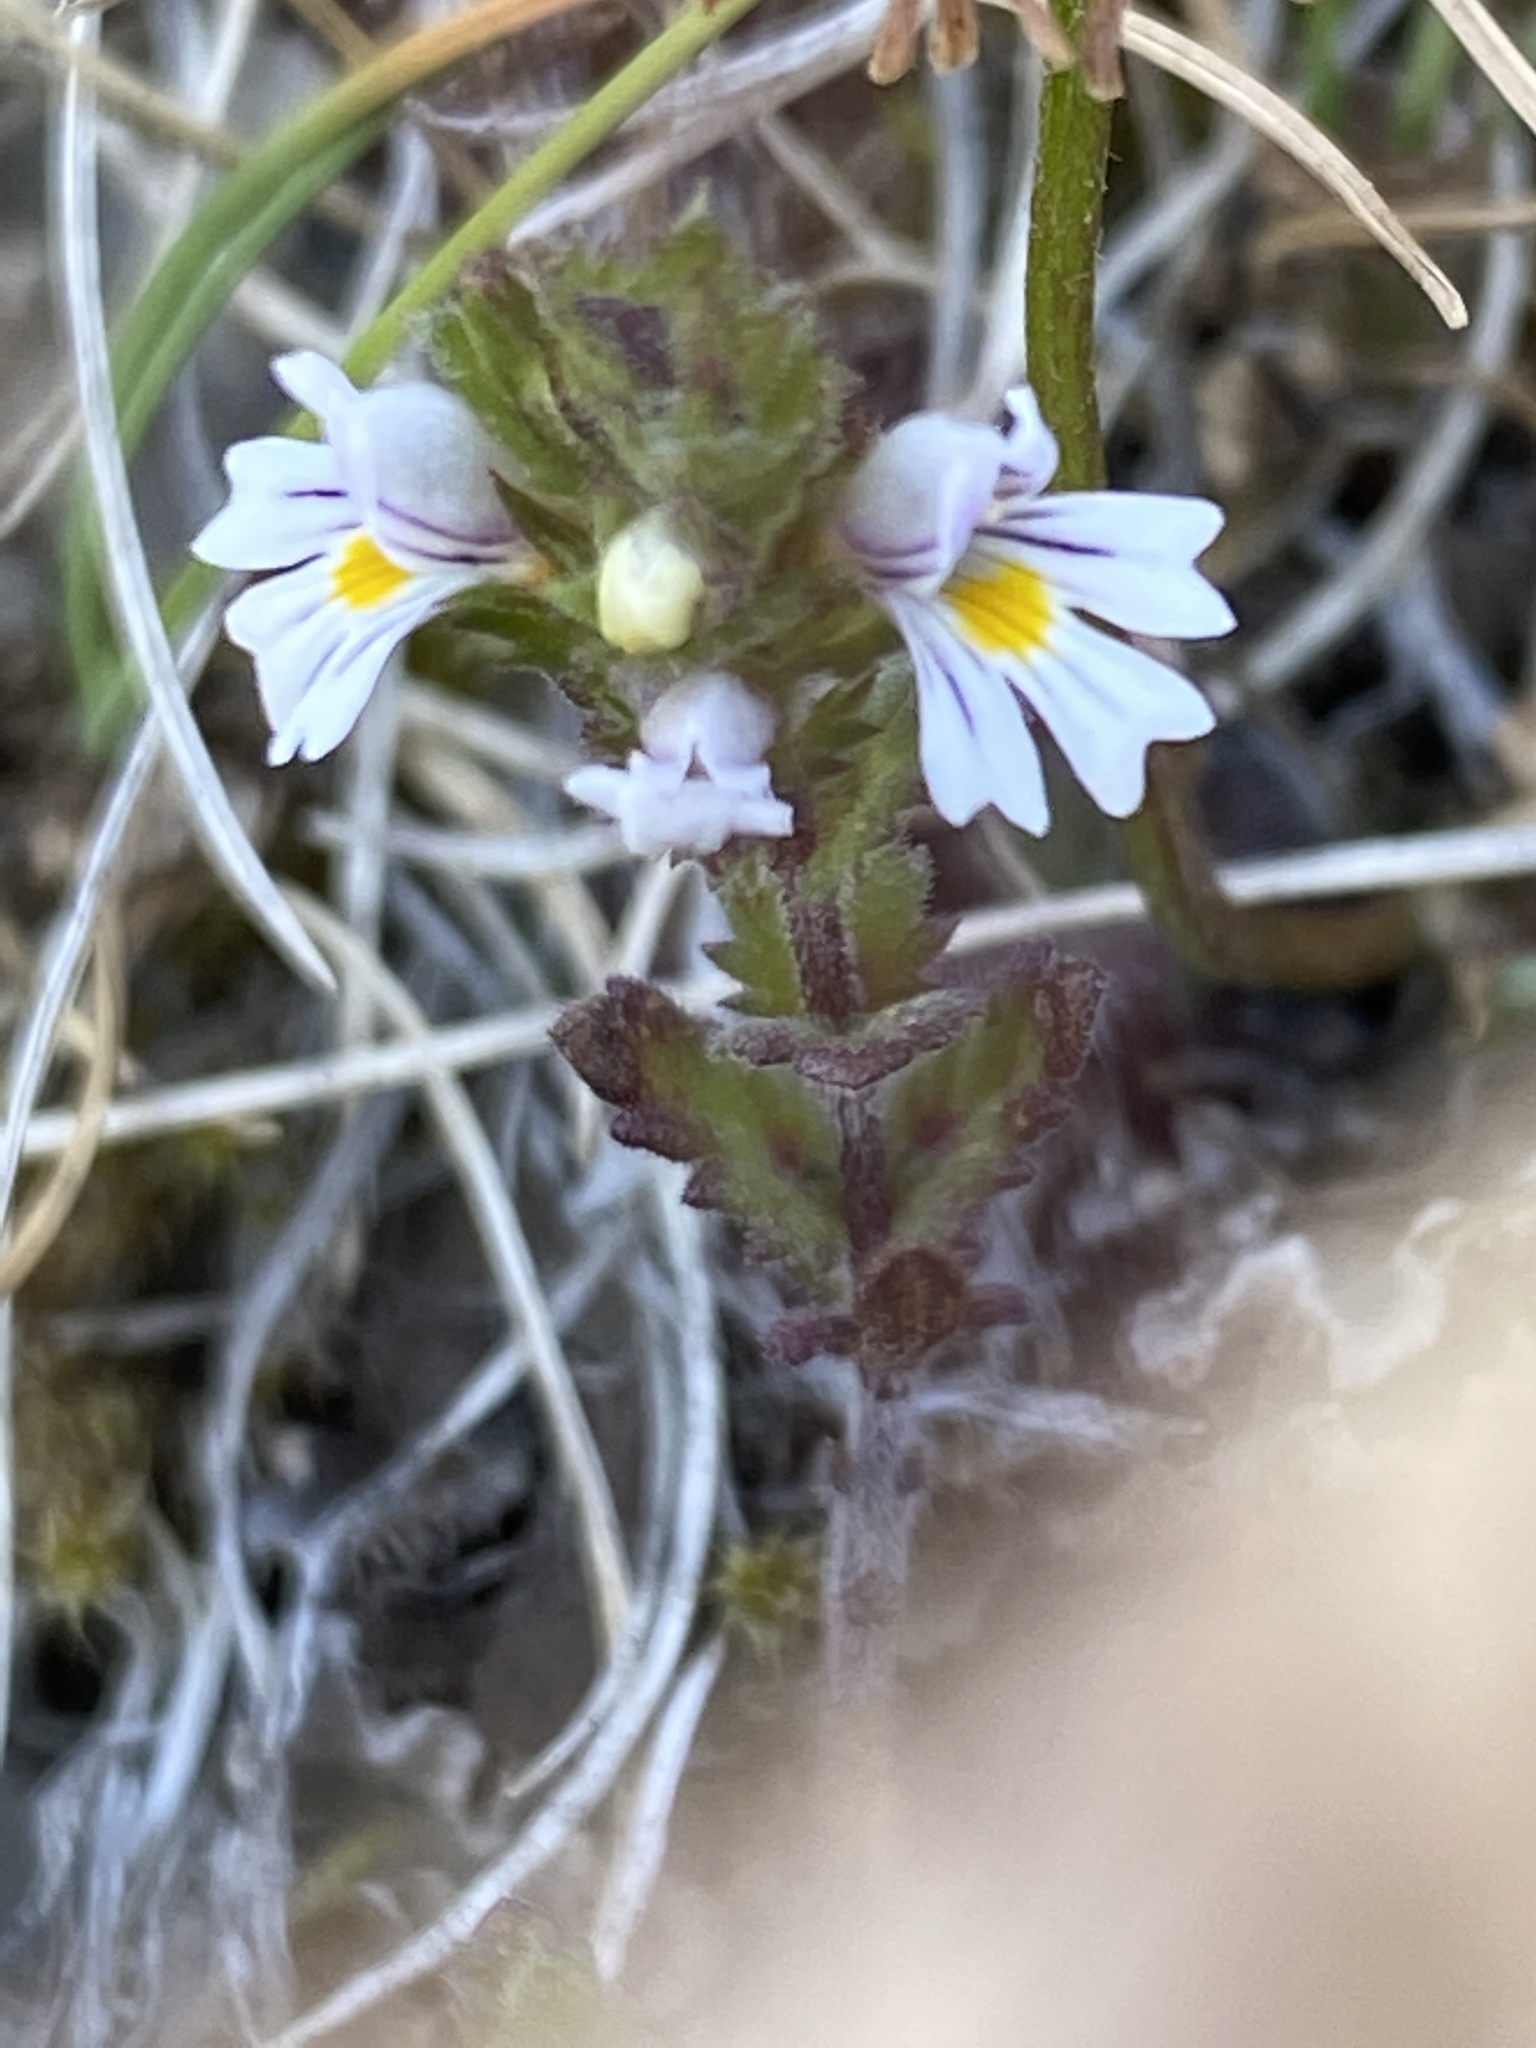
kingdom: Plantae
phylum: Tracheophyta
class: Magnoliopsida
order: Lamiales
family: Orobanchaceae
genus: Euphrasia
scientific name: Euphrasia frigida
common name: An eyebright
